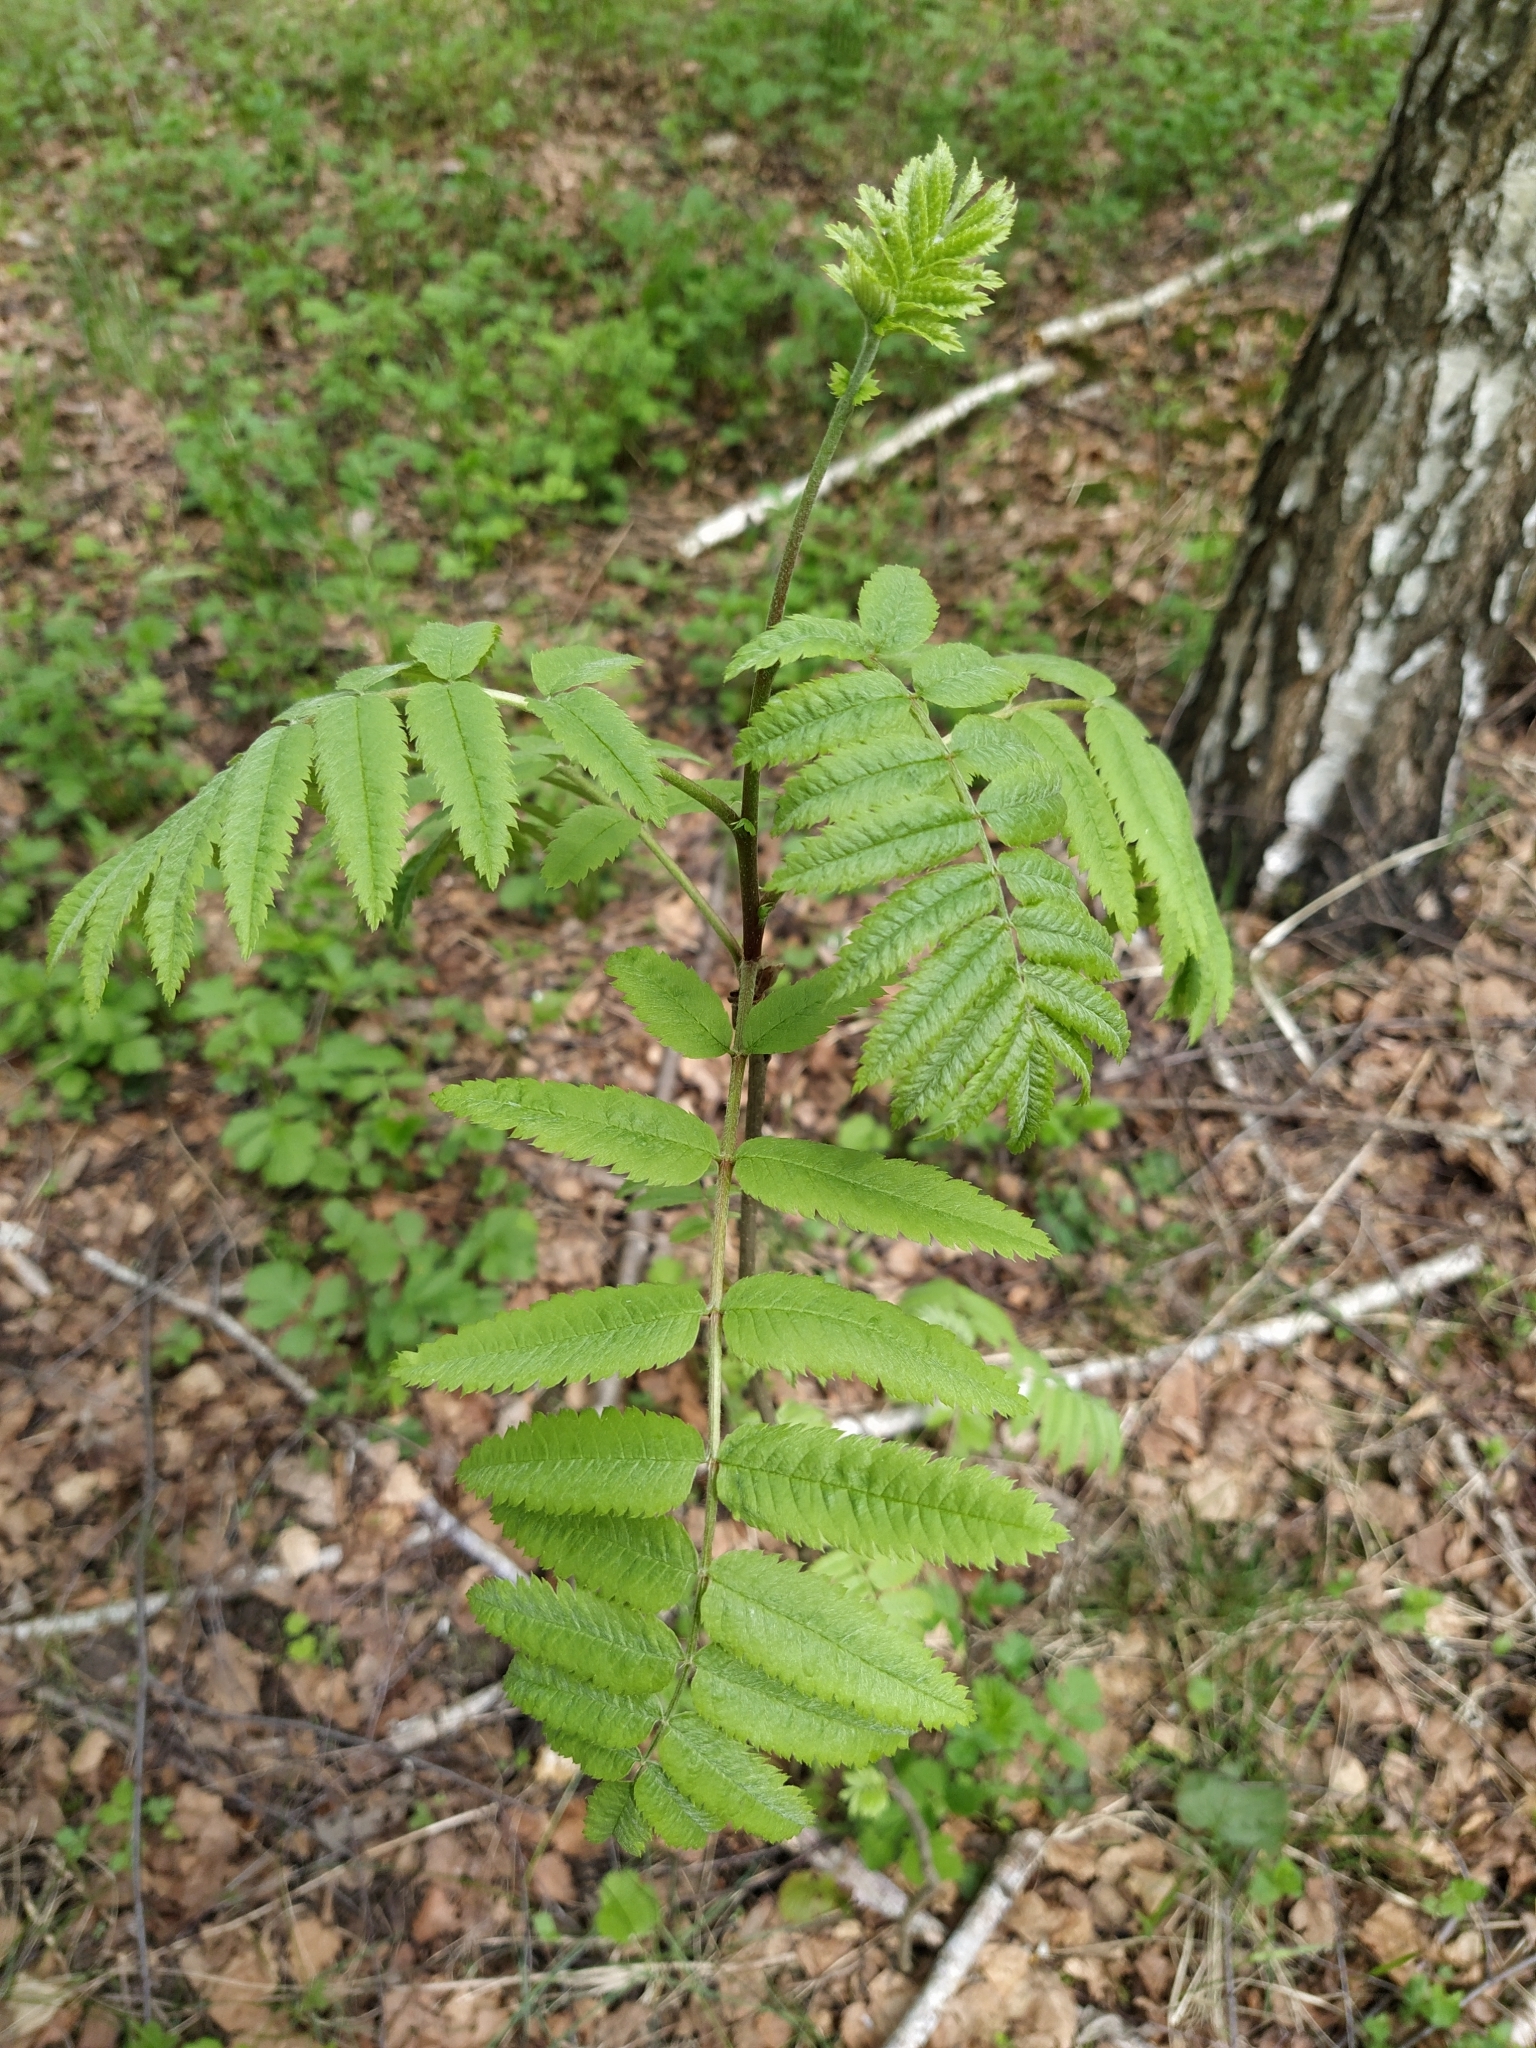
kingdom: Plantae
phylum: Tracheophyta
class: Magnoliopsida
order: Rosales
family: Rosaceae
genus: Sorbus
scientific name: Sorbus aucuparia
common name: Rowan
